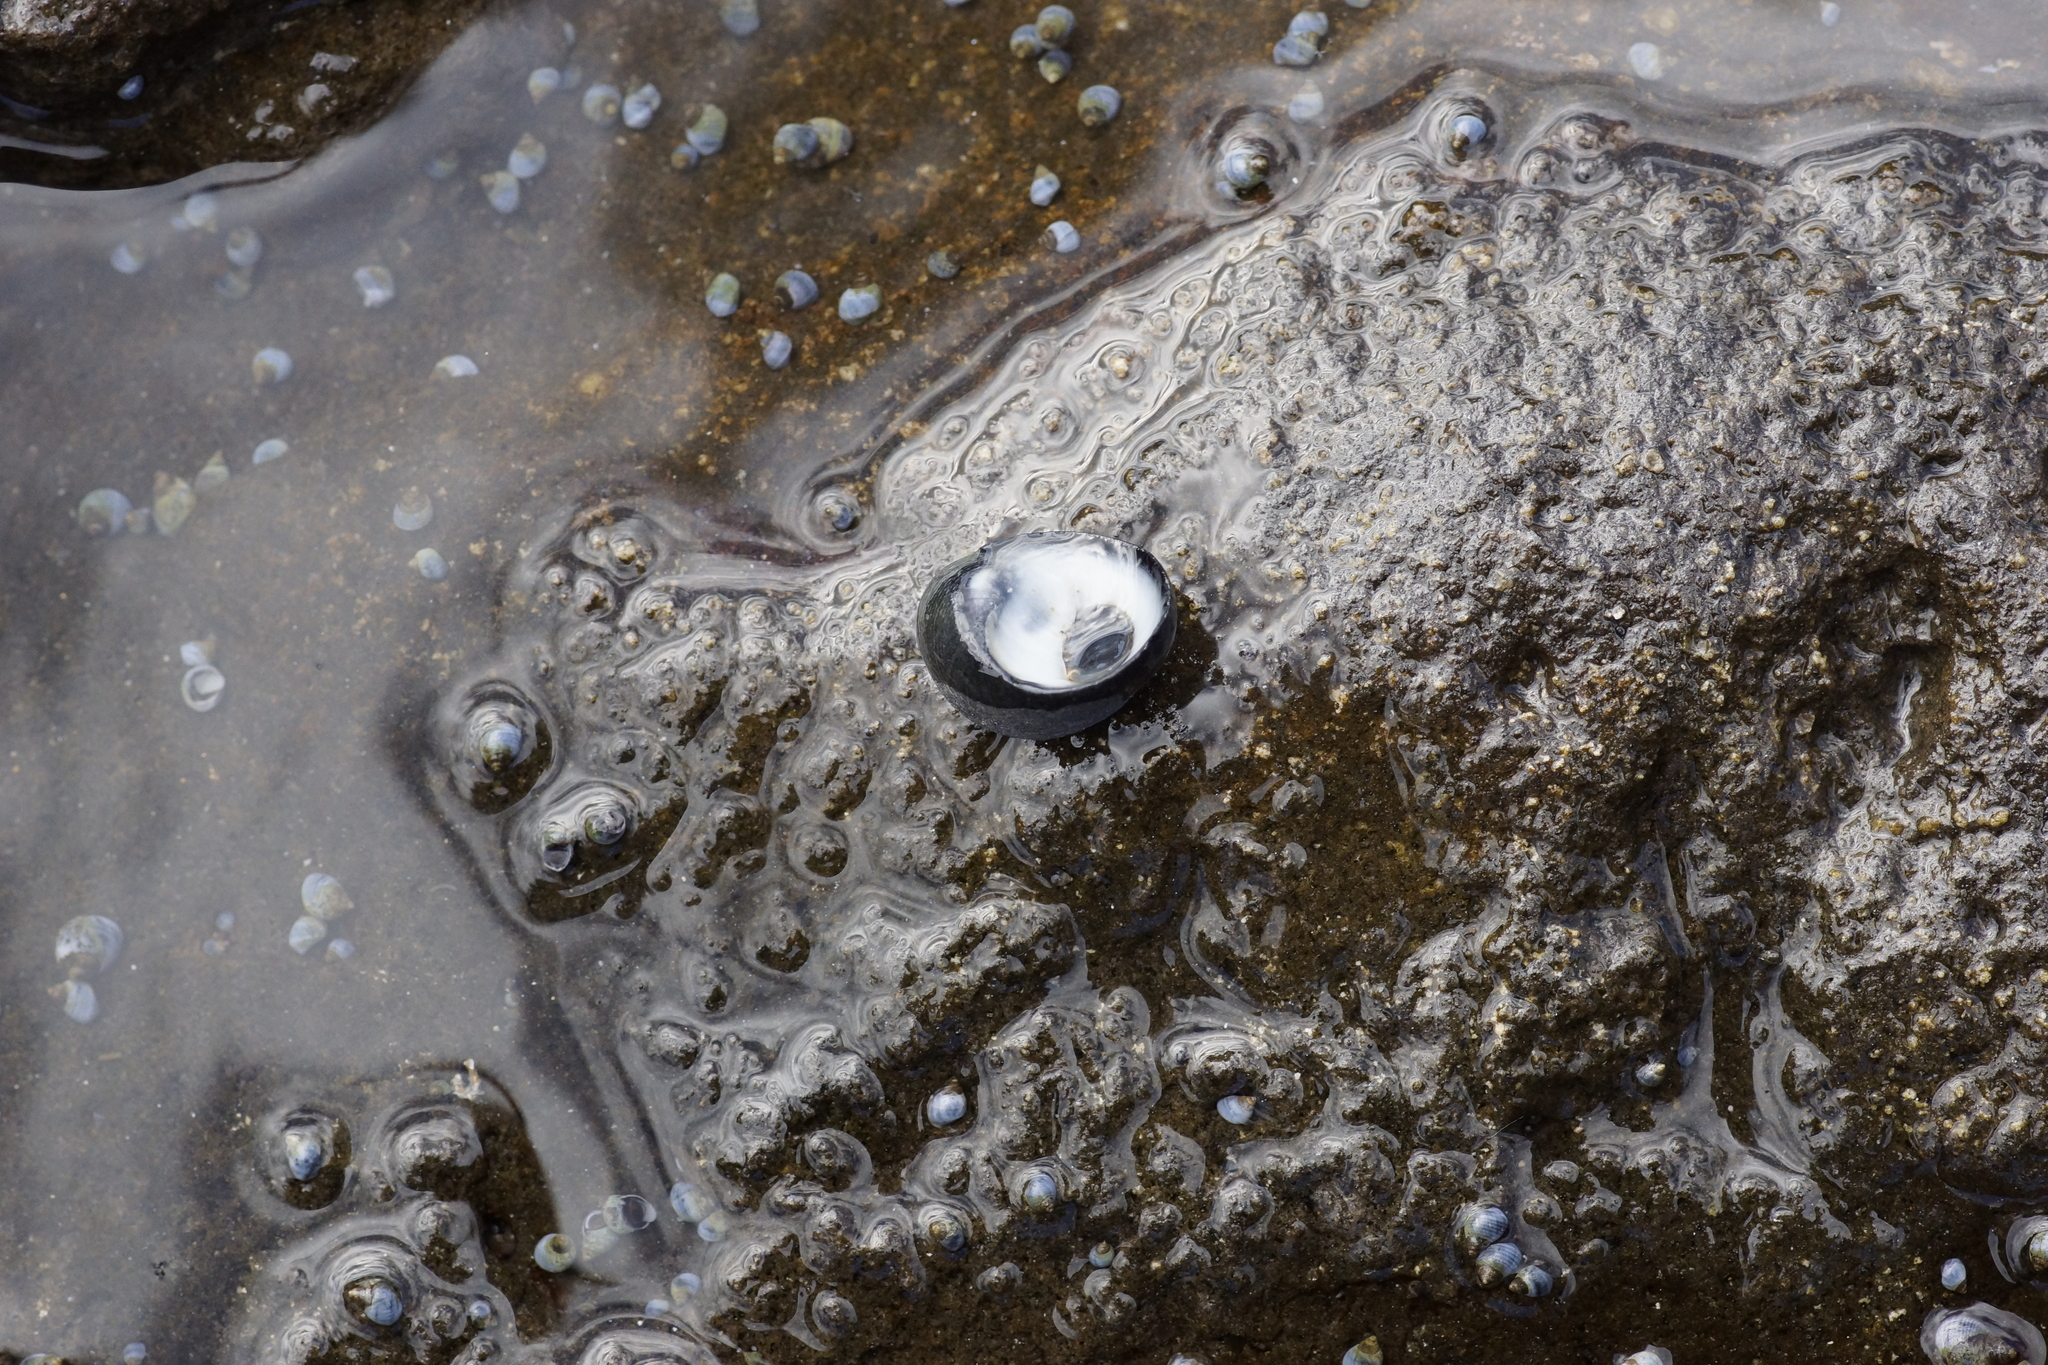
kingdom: Animalia
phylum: Mollusca
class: Gastropoda
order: Cycloneritida
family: Neritidae
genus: Nerita
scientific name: Nerita atramentosa
